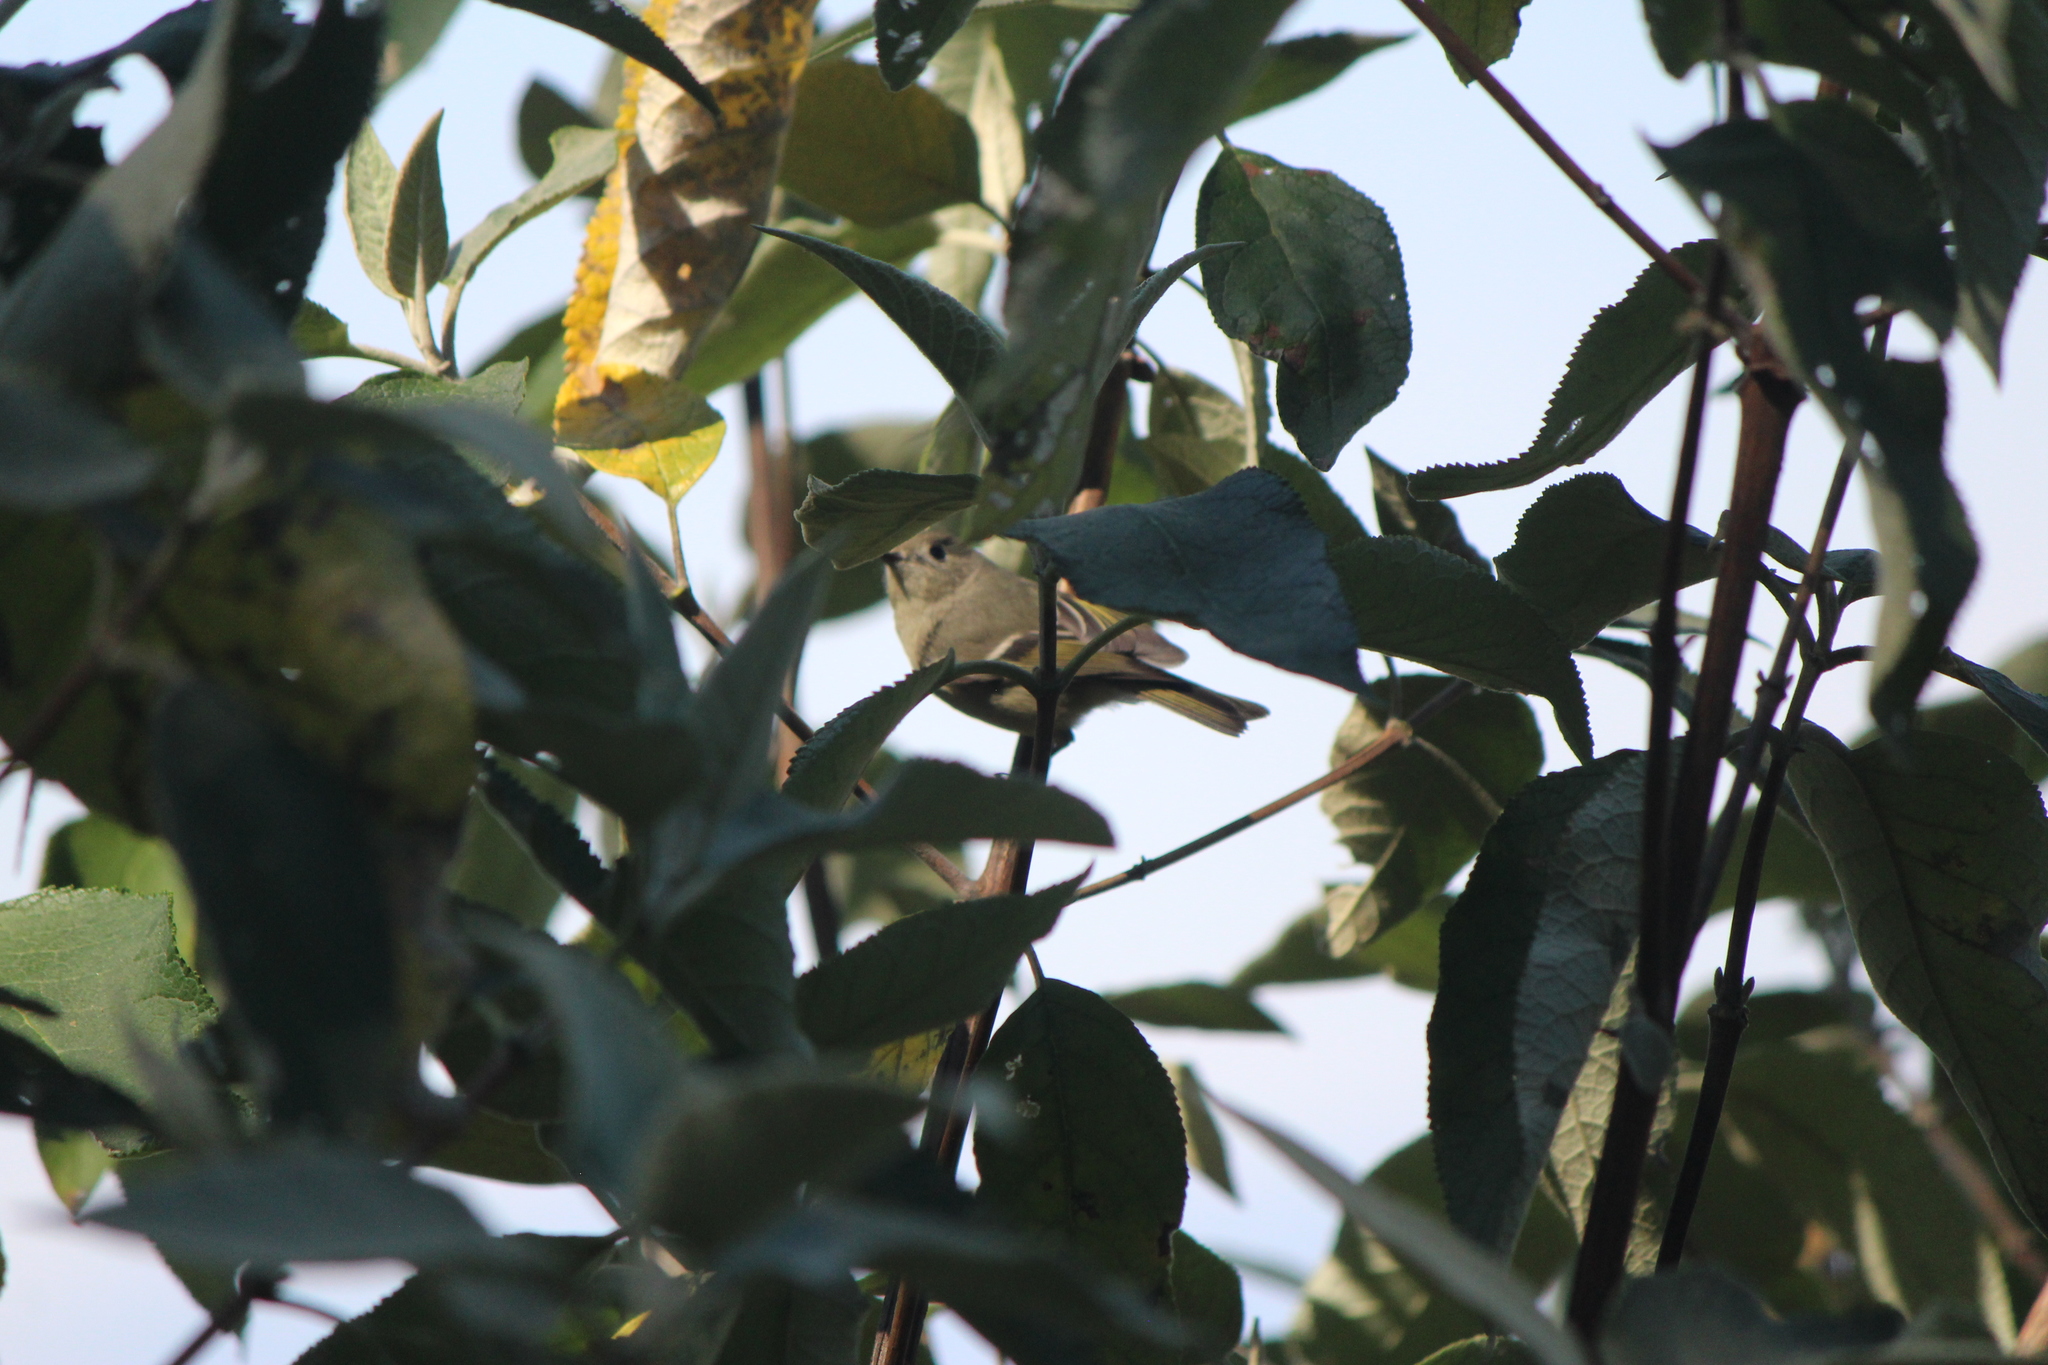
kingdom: Animalia
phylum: Chordata
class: Aves
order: Passeriformes
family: Regulidae
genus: Regulus
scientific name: Regulus calendula
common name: Ruby-crowned kinglet
